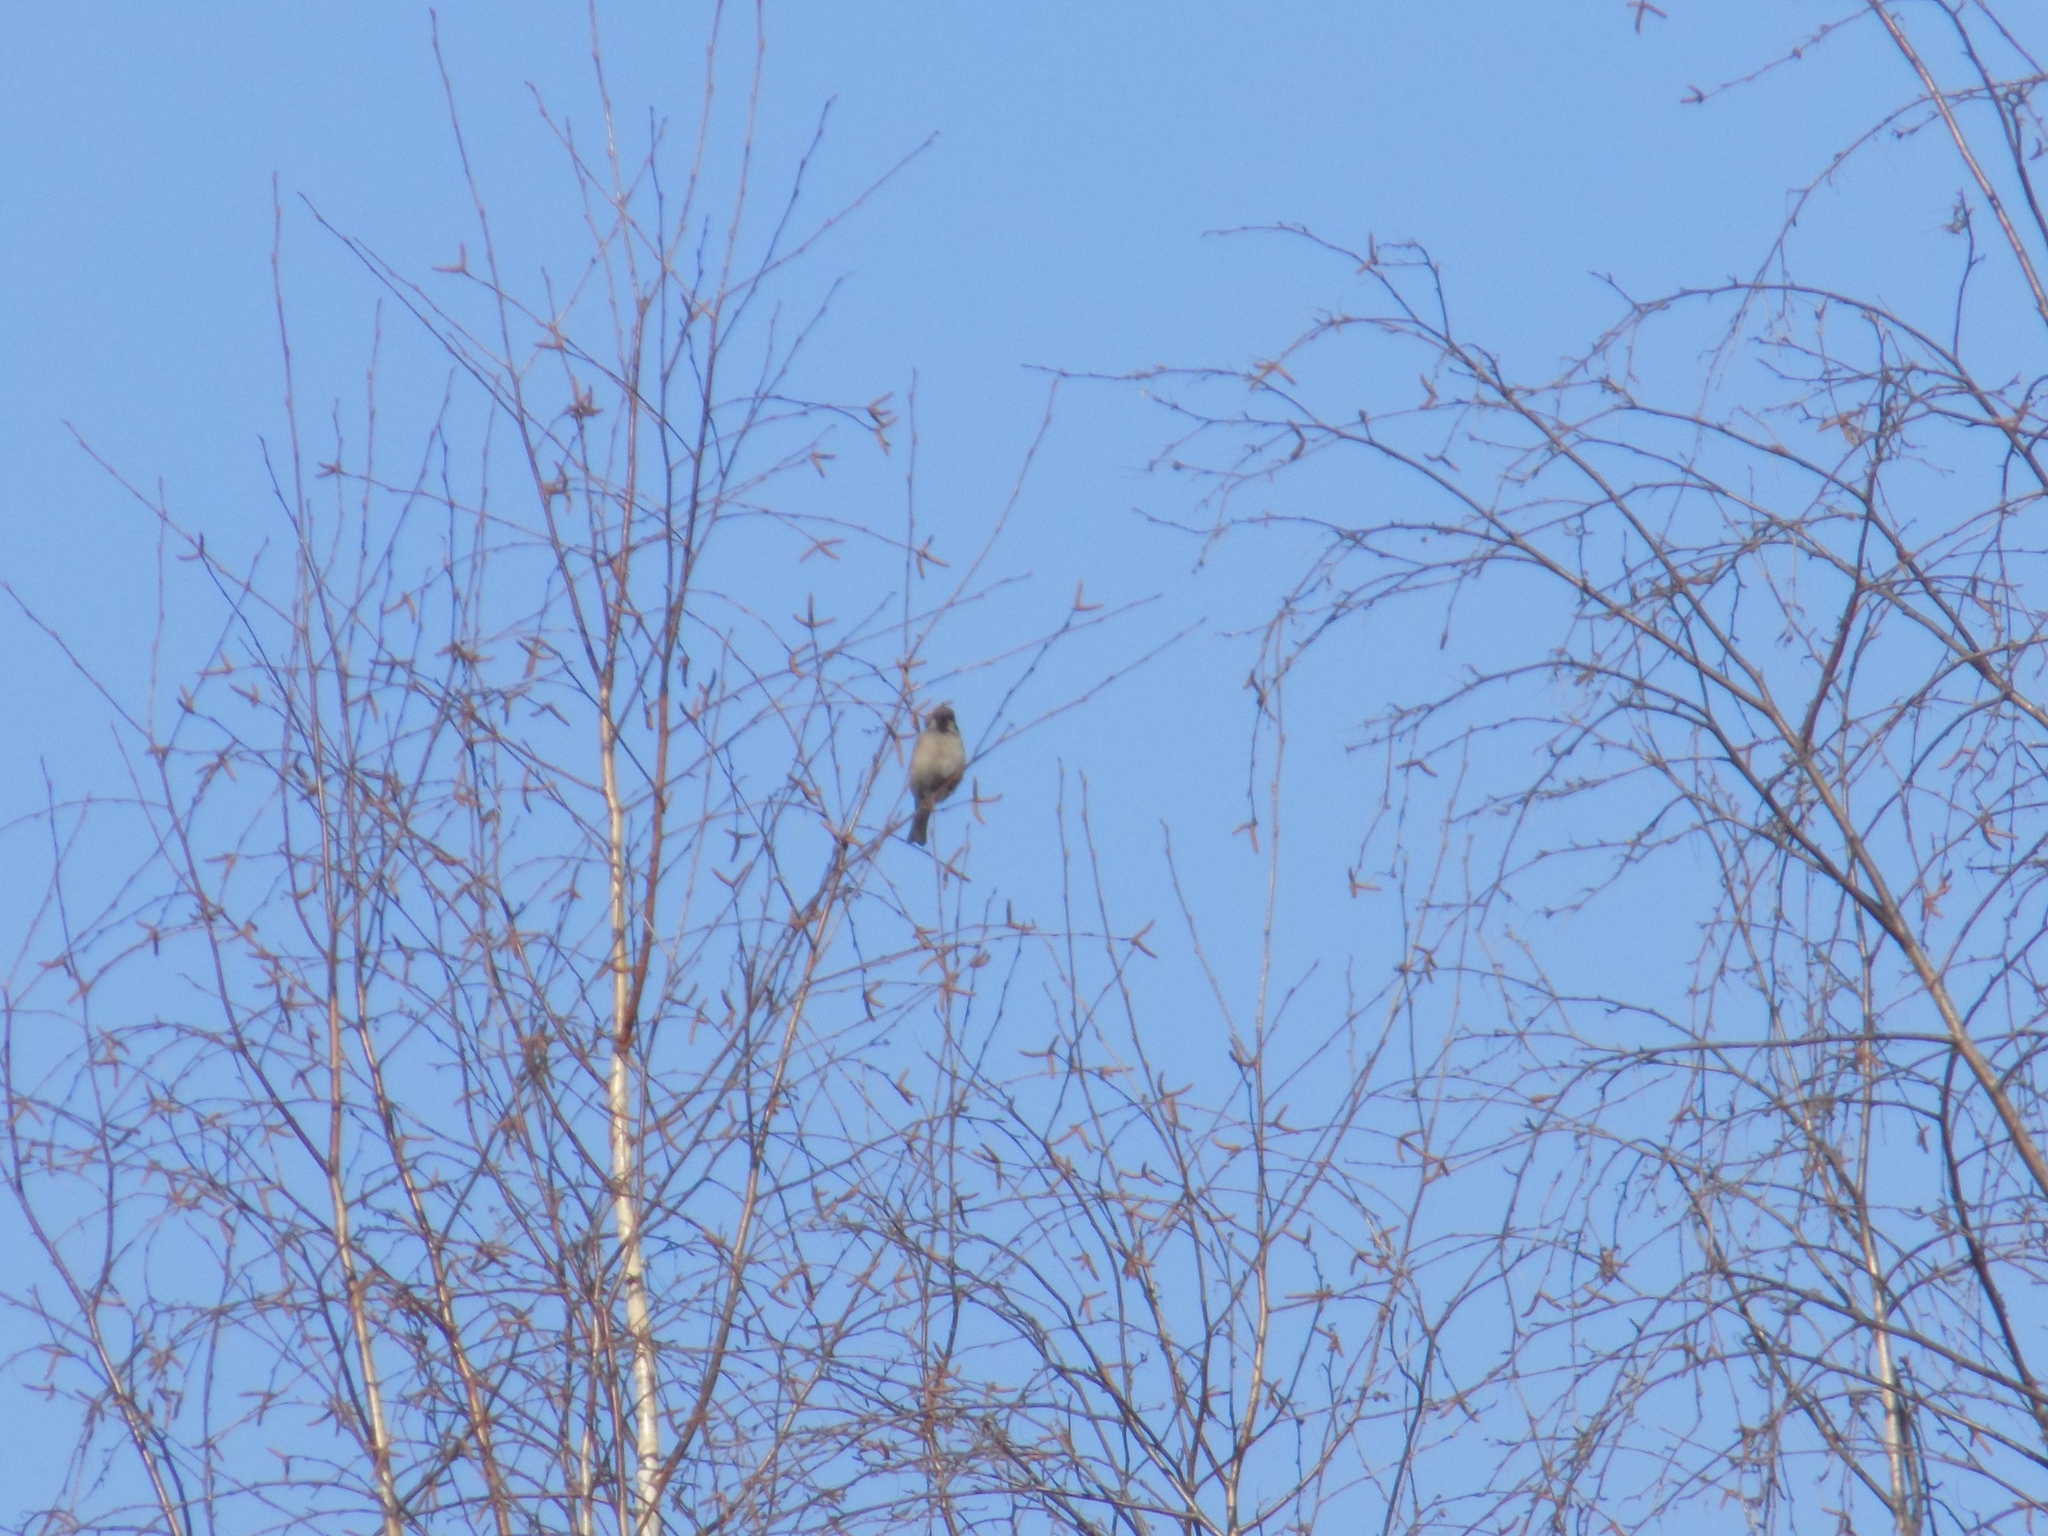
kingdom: Animalia
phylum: Chordata
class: Aves
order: Passeriformes
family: Passeridae
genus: Passer
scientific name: Passer montanus
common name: Eurasian tree sparrow
